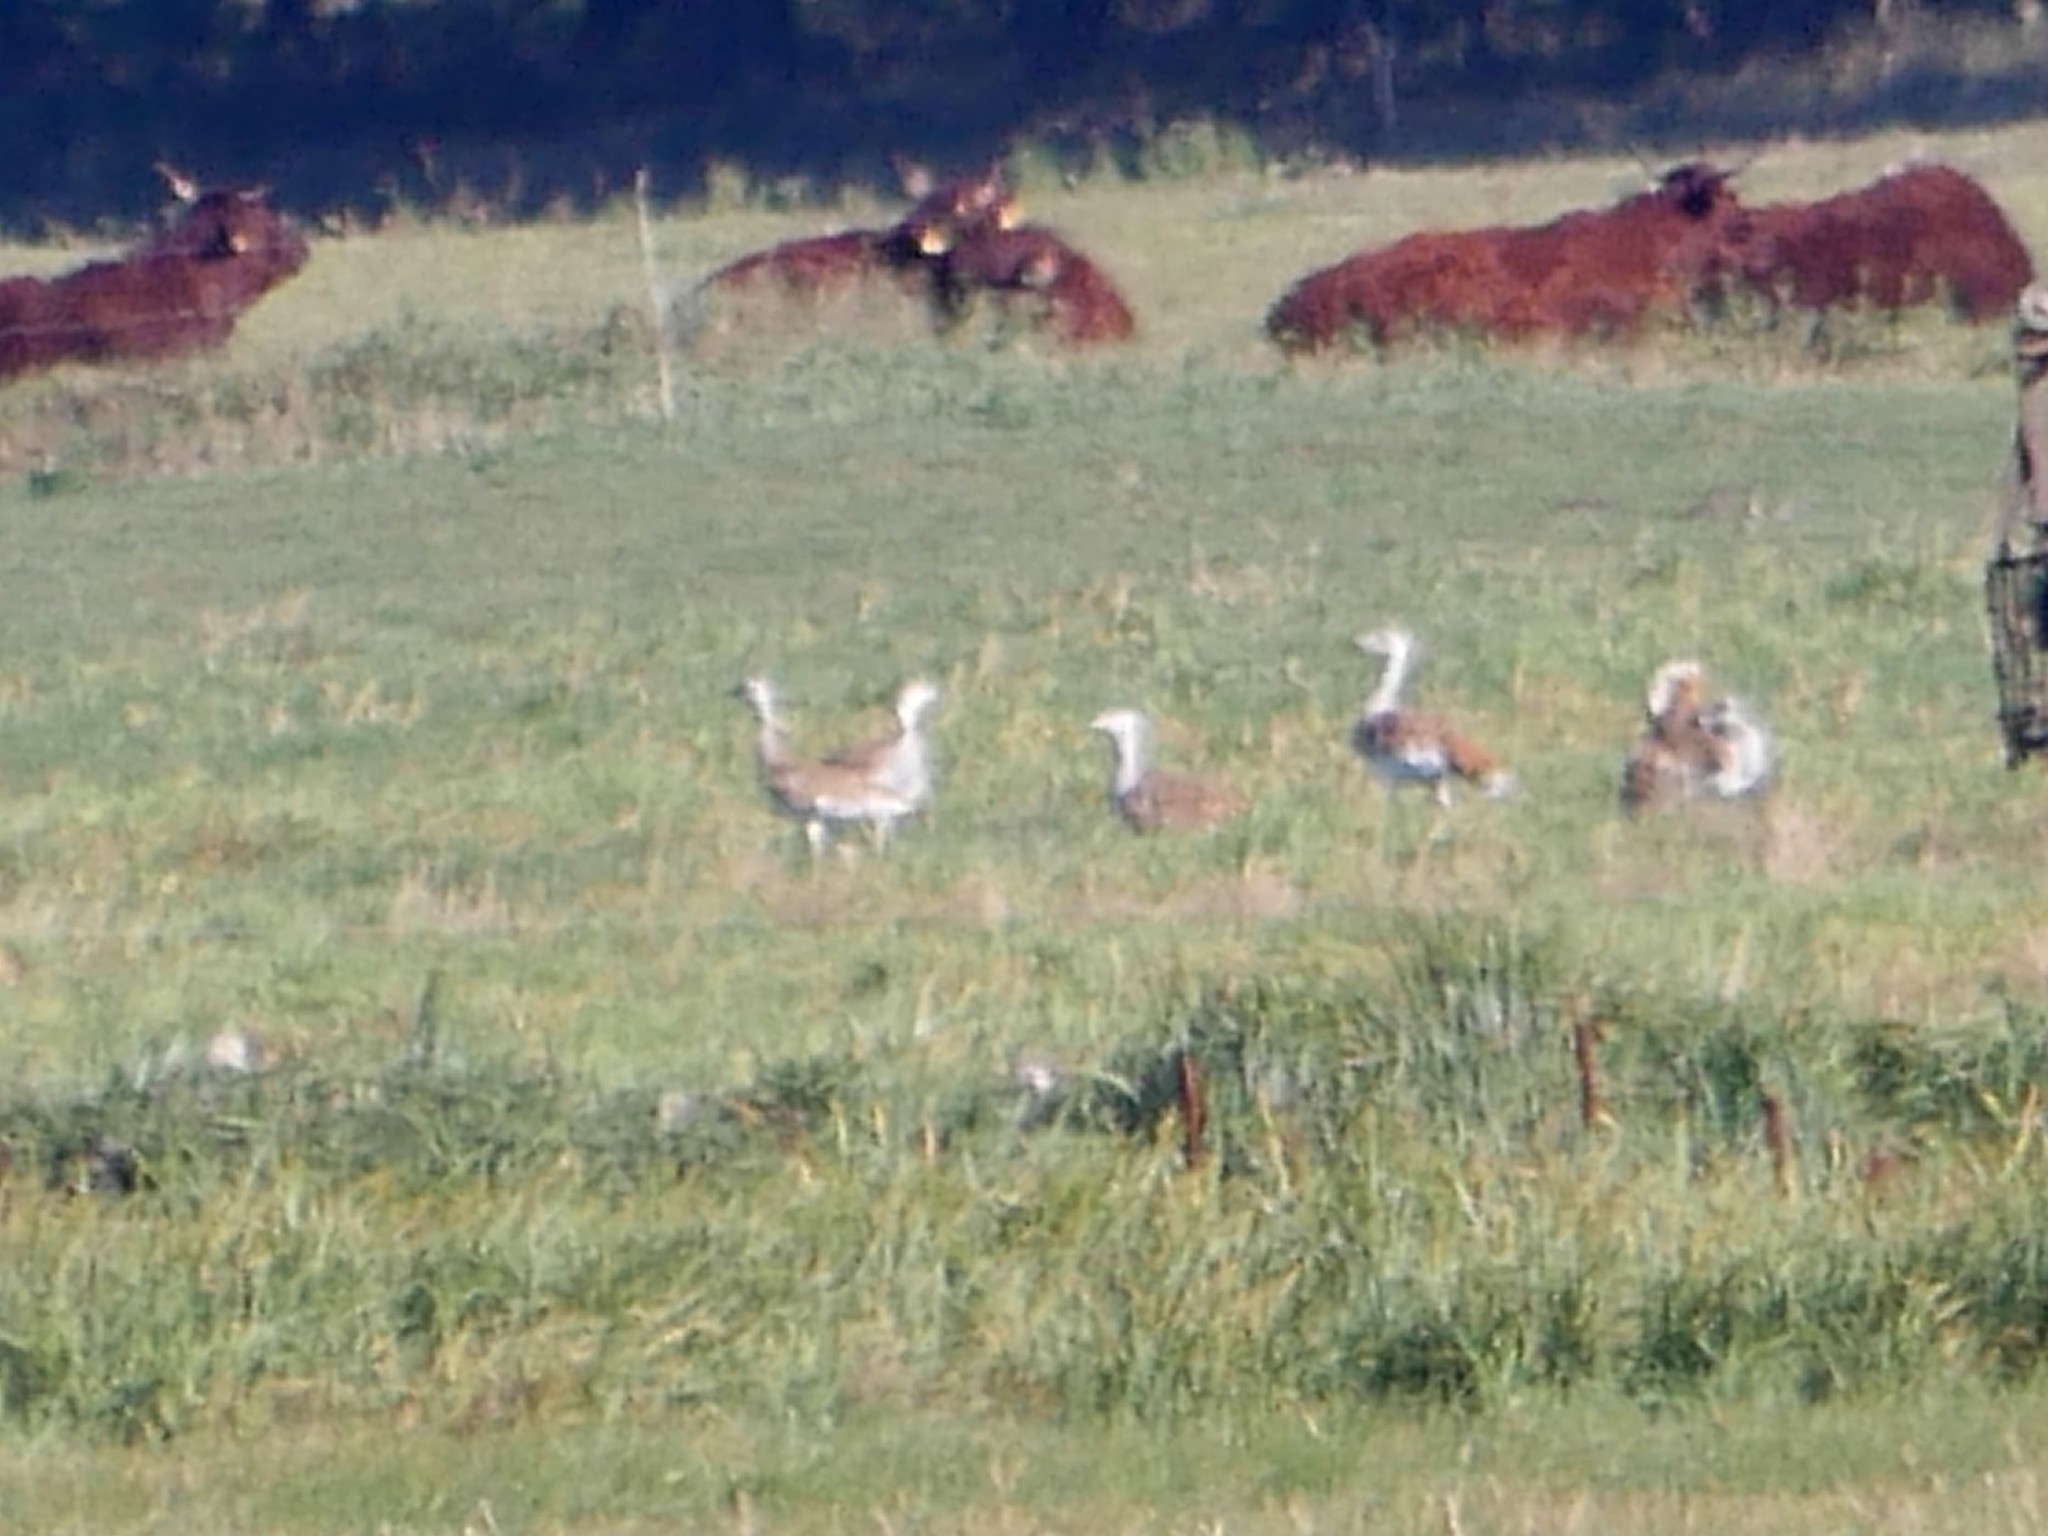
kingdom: Animalia
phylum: Chordata
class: Aves
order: Otidiformes
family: Otididae
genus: Otis
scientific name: Otis tarda
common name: Great bustard
